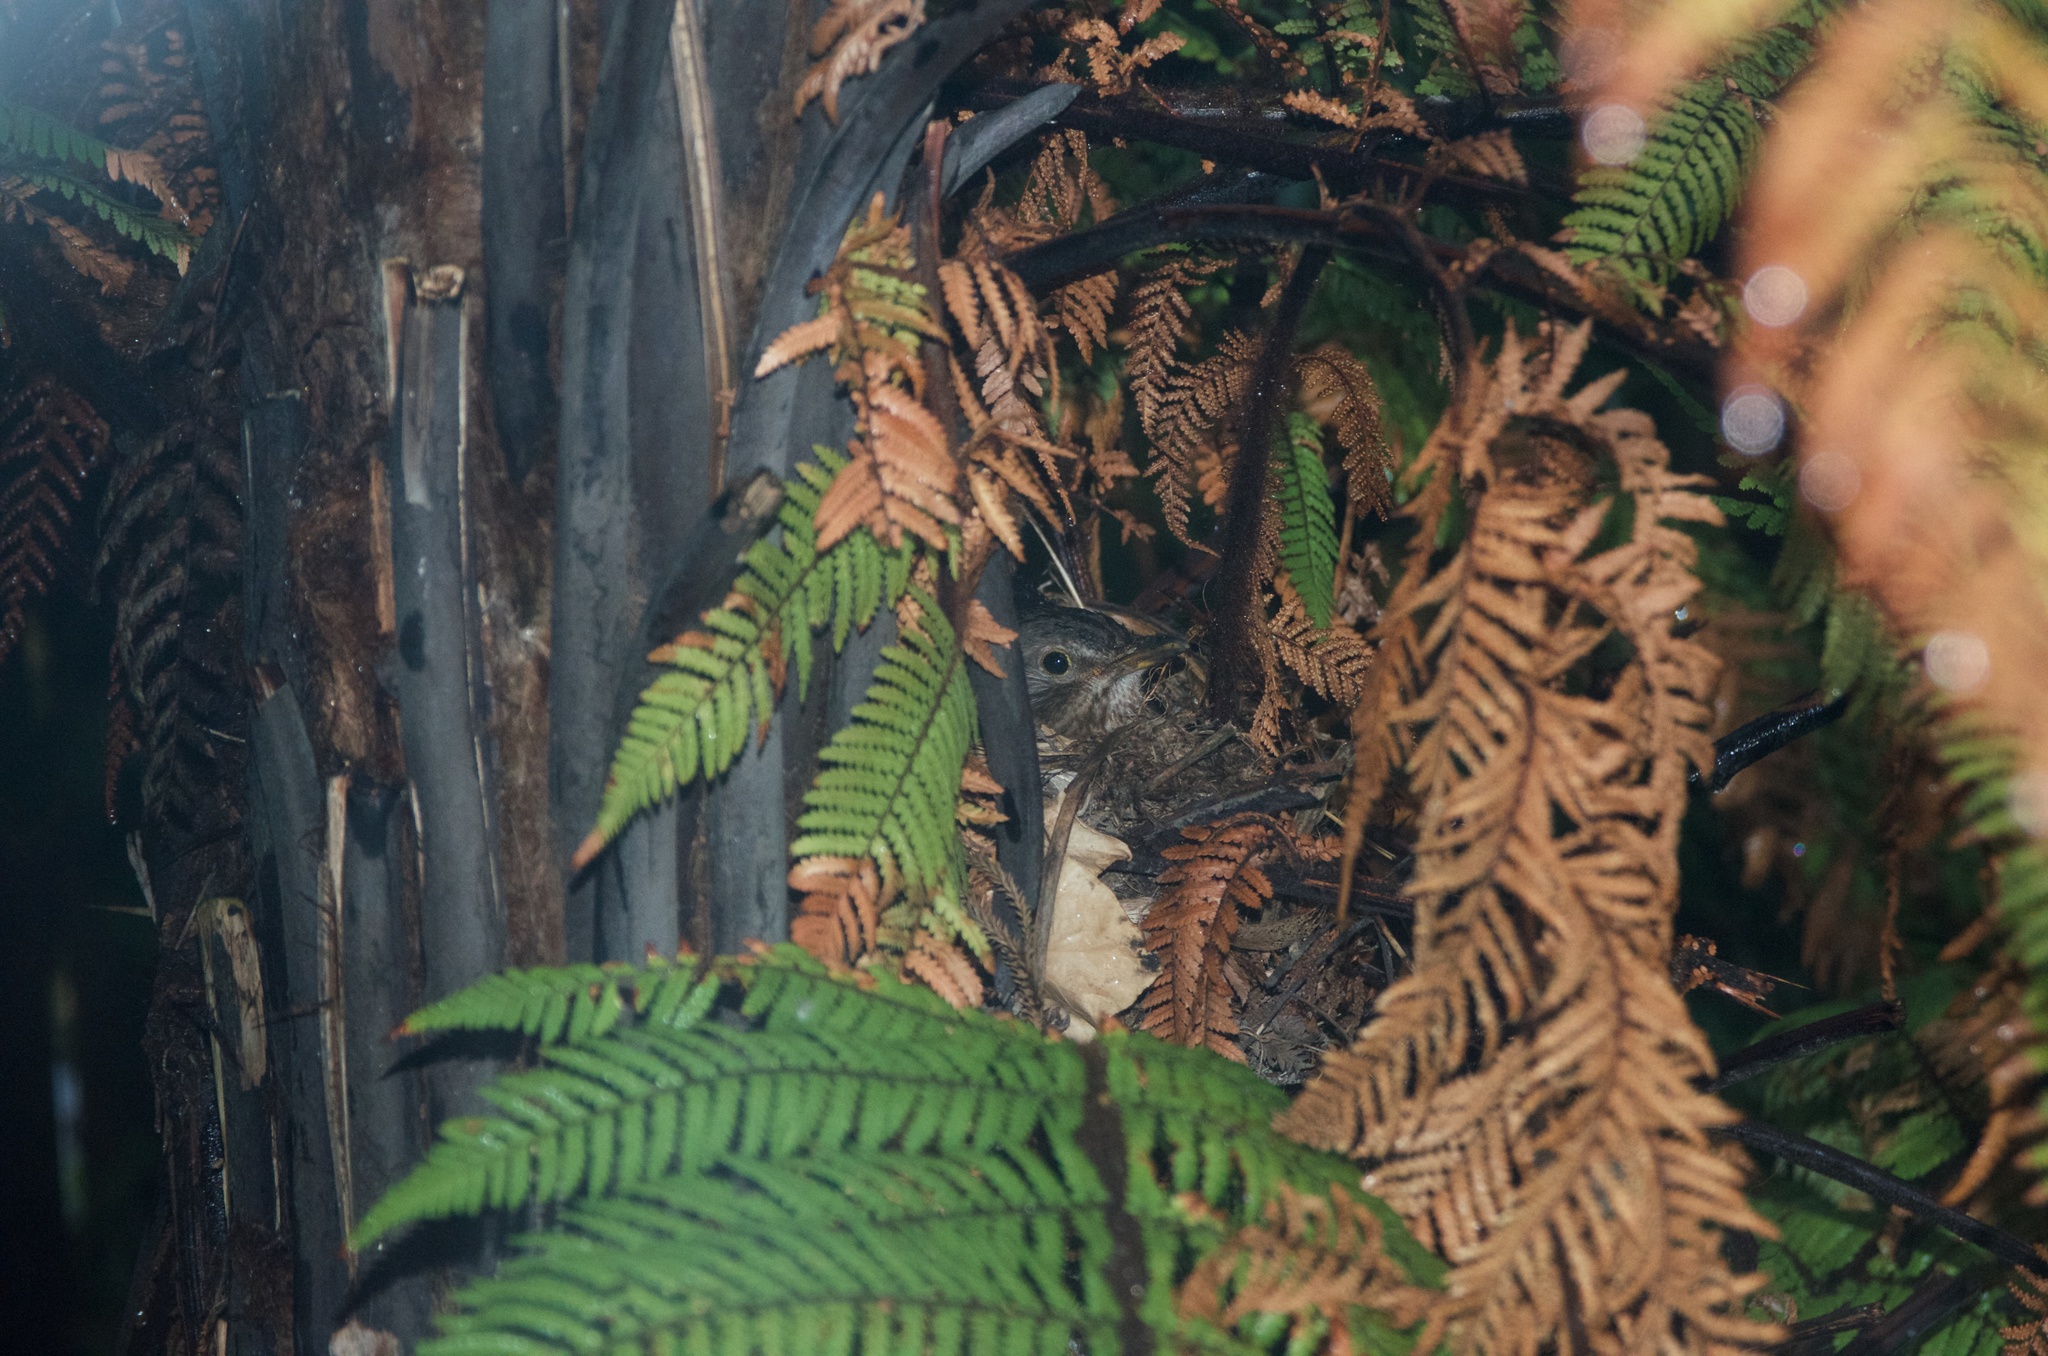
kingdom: Animalia
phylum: Chordata
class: Aves
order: Passeriformes
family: Turdidae
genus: Turdus
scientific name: Turdus merula
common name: Common blackbird
